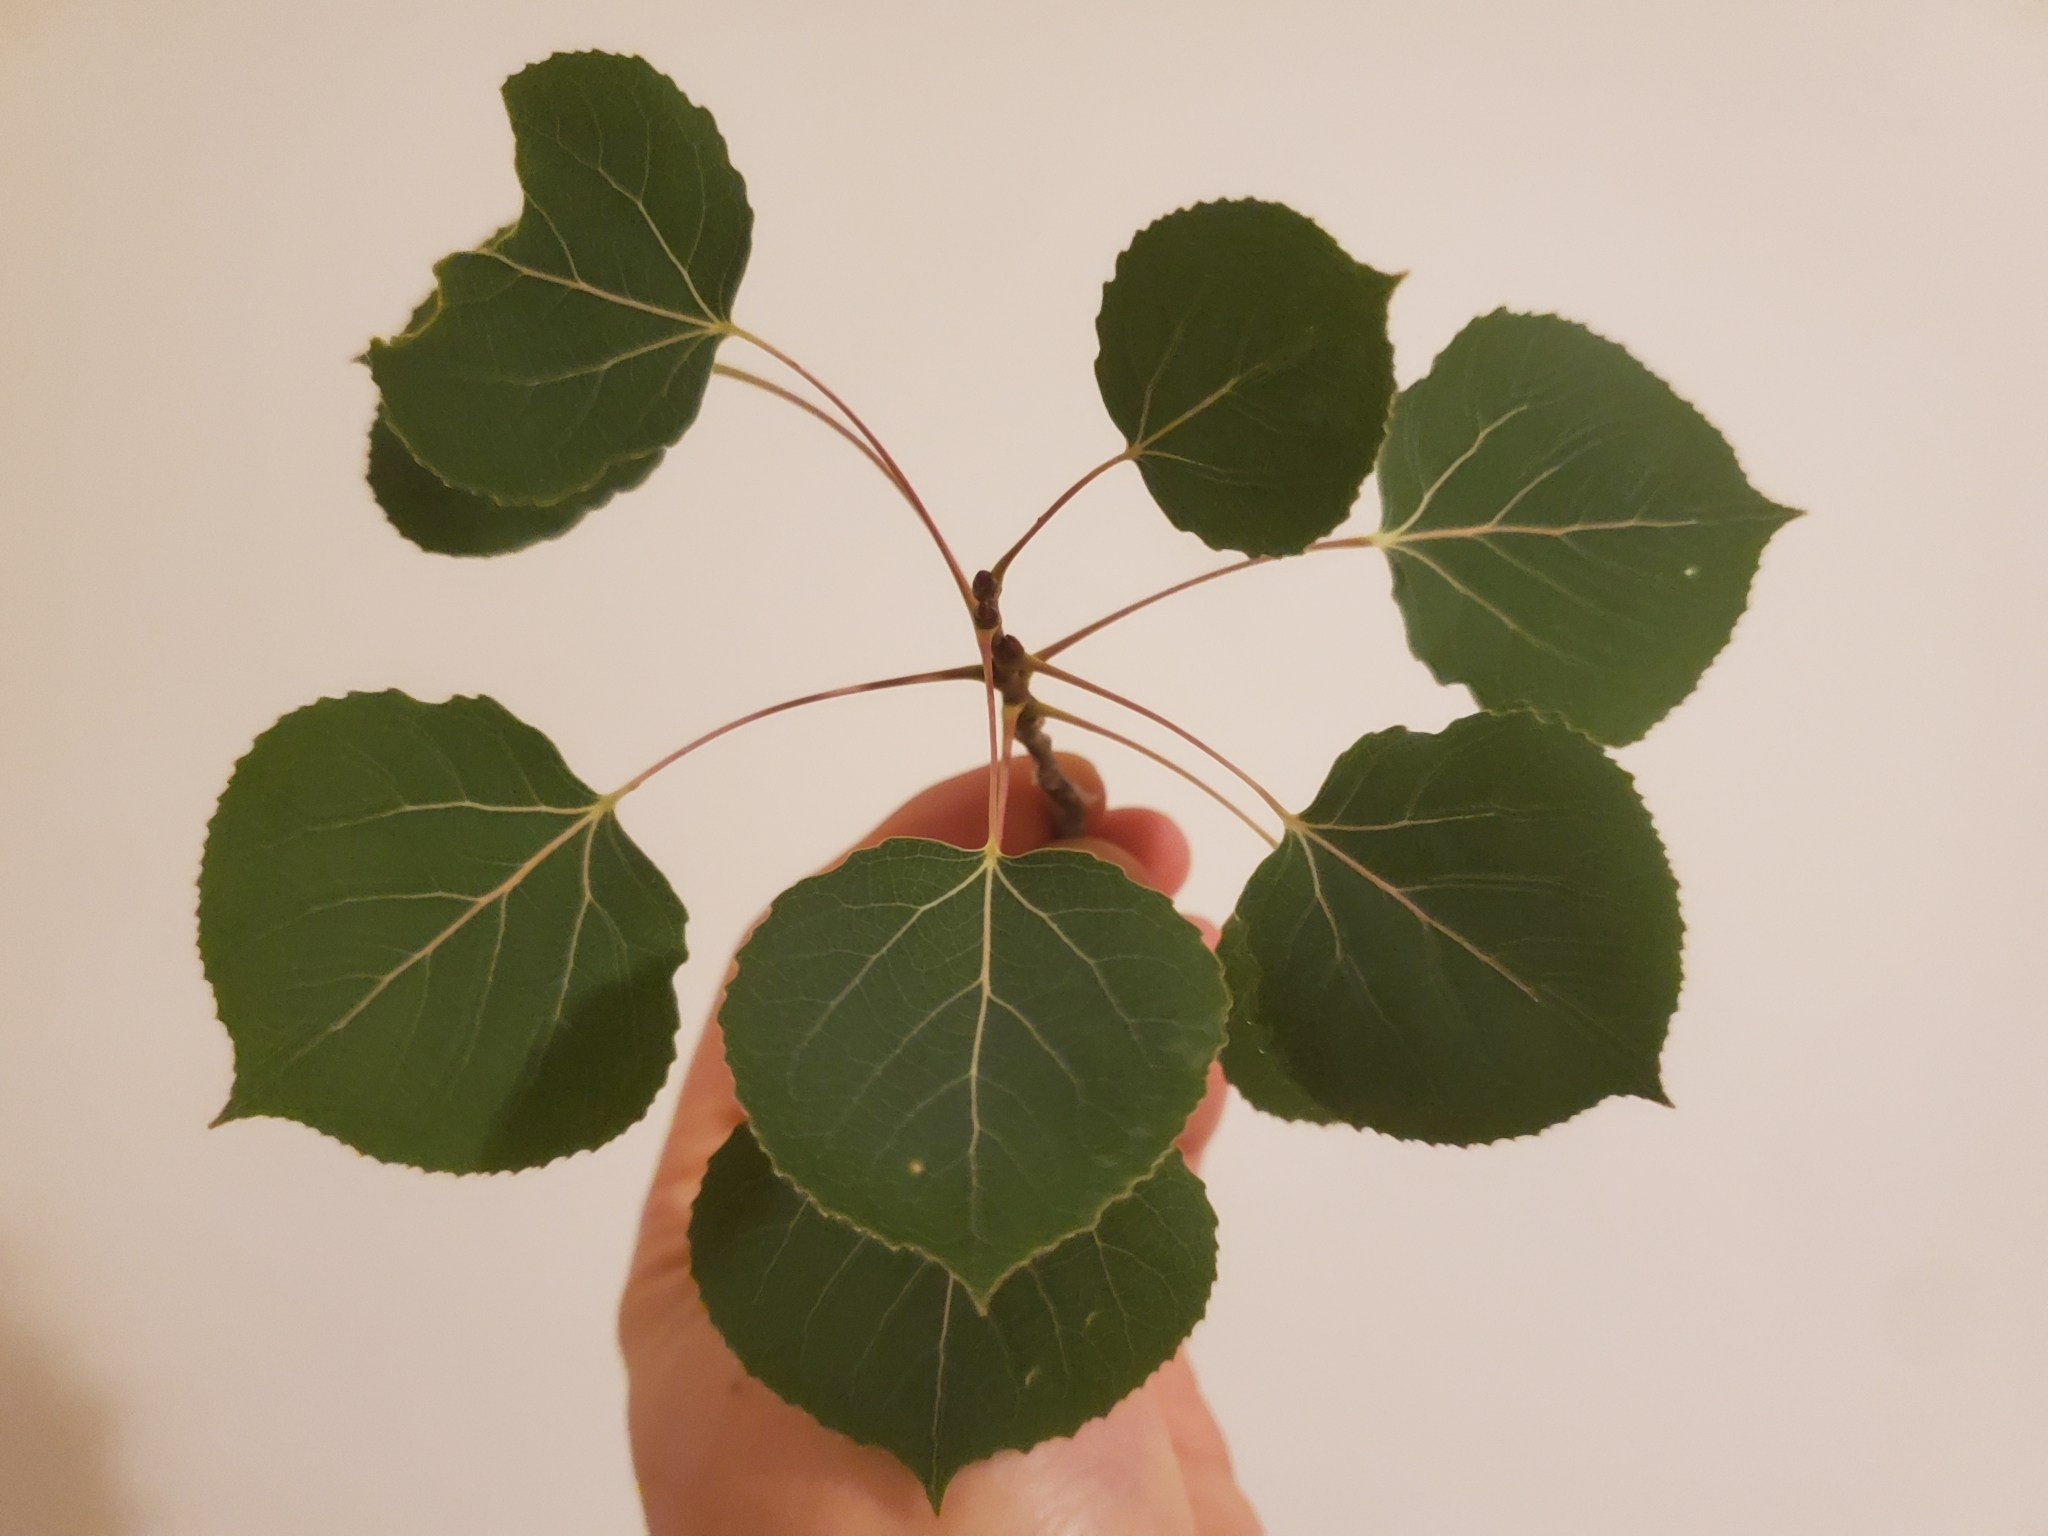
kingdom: Plantae
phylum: Tracheophyta
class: Magnoliopsida
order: Malpighiales
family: Salicaceae
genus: Populus
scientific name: Populus tremuloides
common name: Quaking aspen
